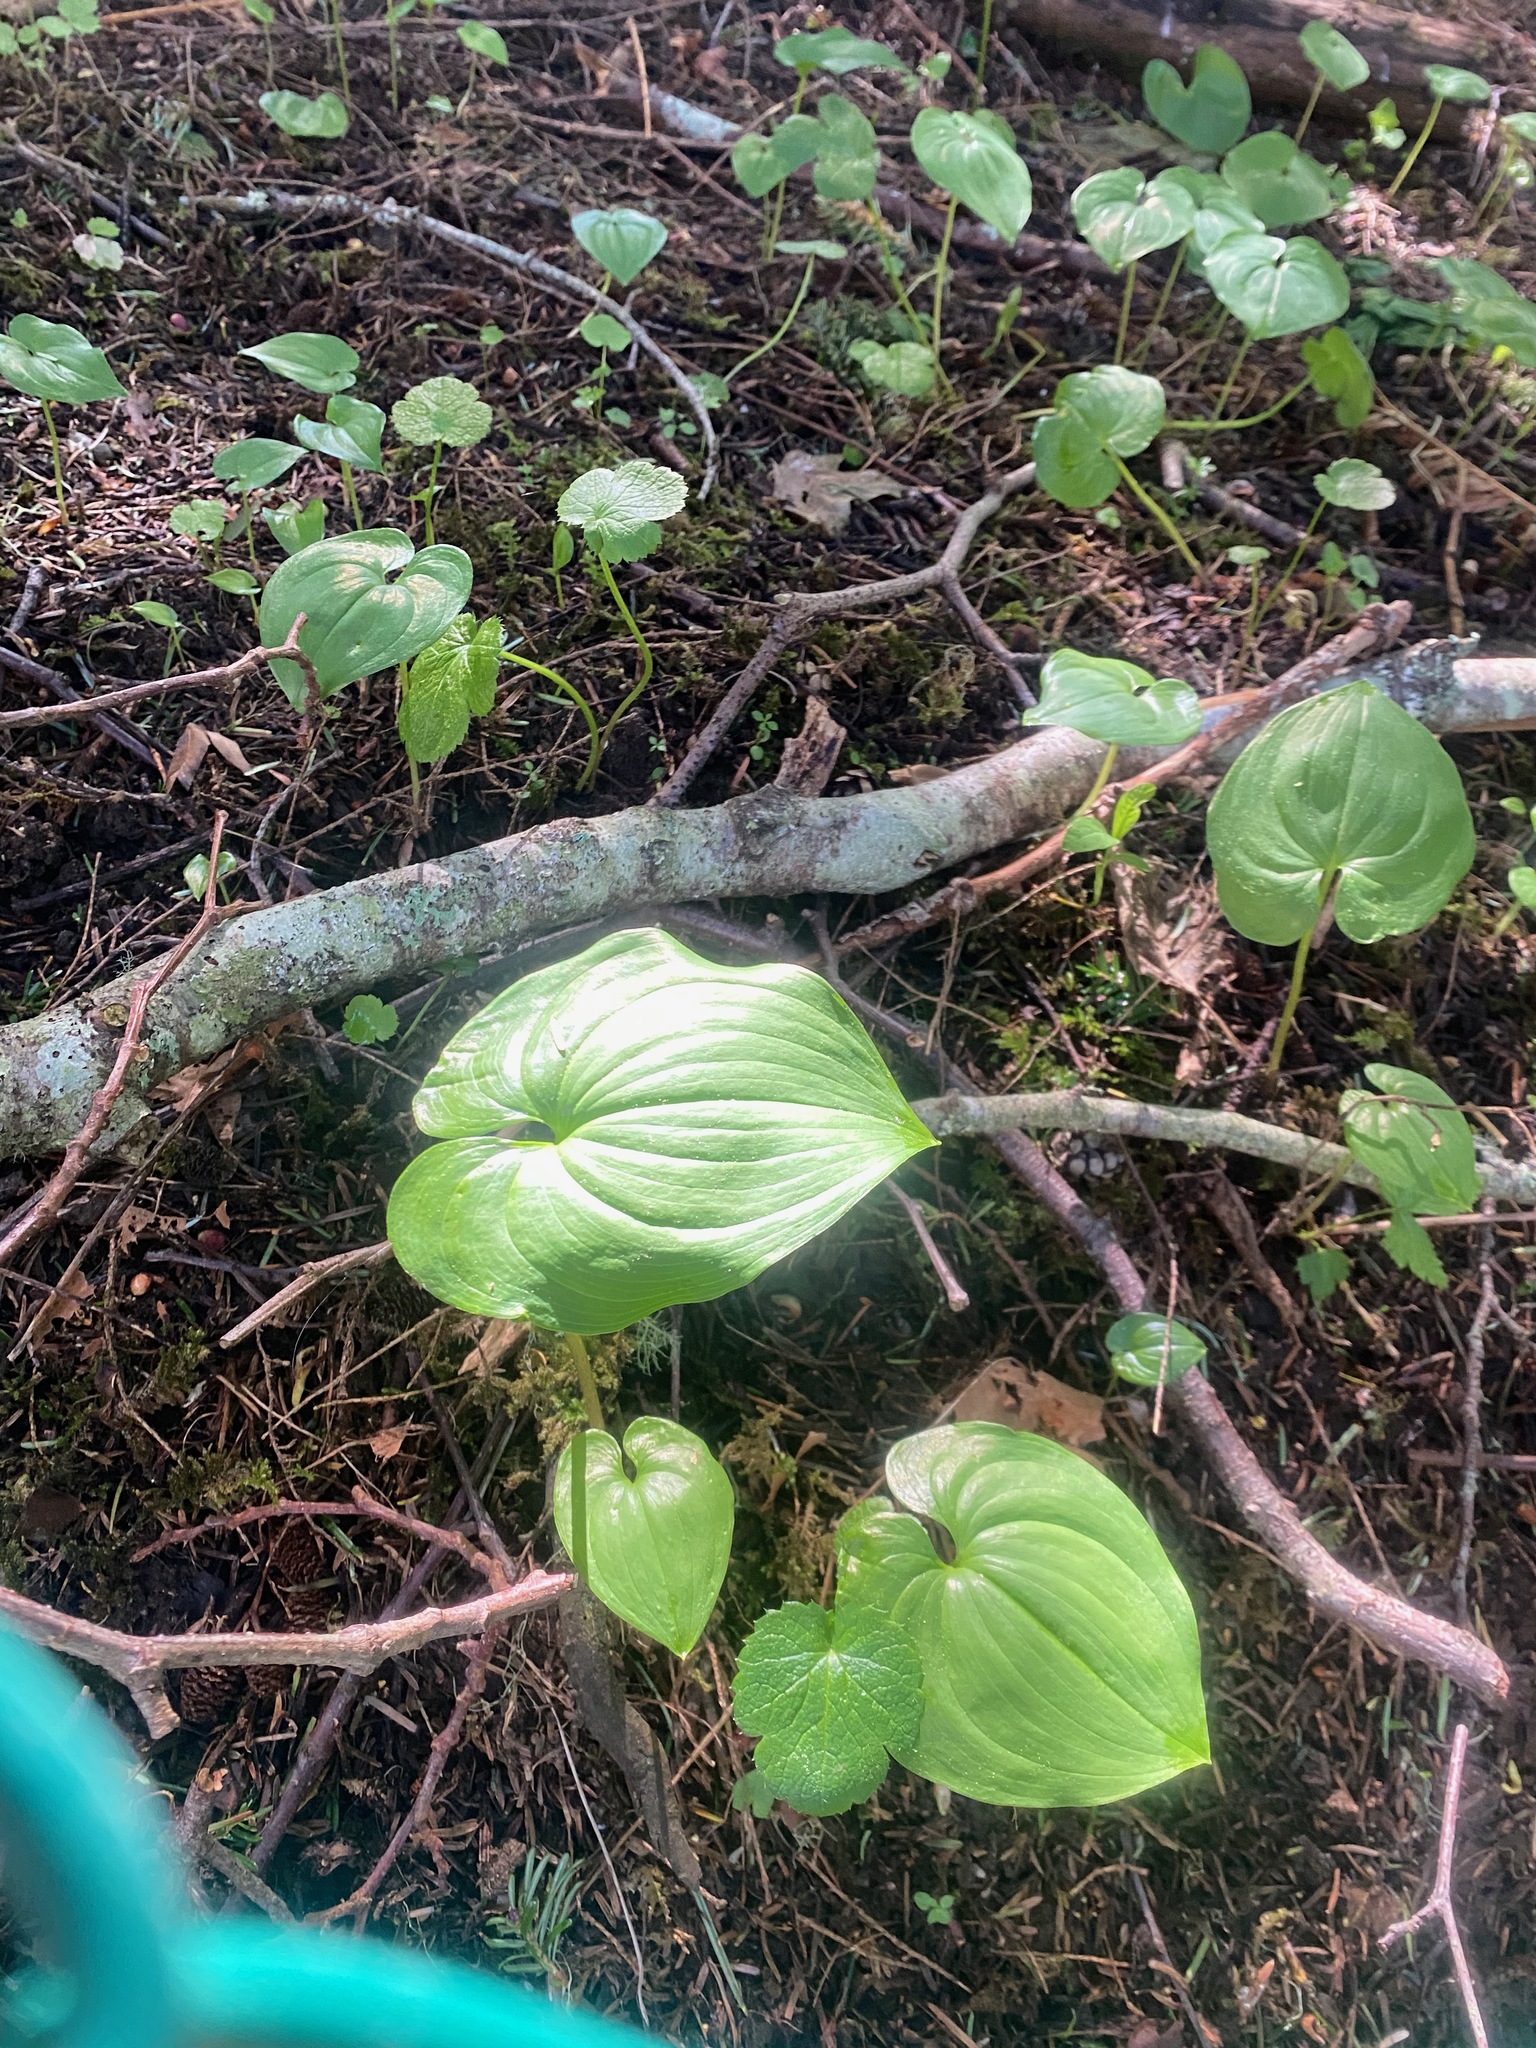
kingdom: Plantae
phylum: Tracheophyta
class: Liliopsida
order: Asparagales
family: Asparagaceae
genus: Maianthemum
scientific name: Maianthemum dilatatum
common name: False lily-of-the-valley
